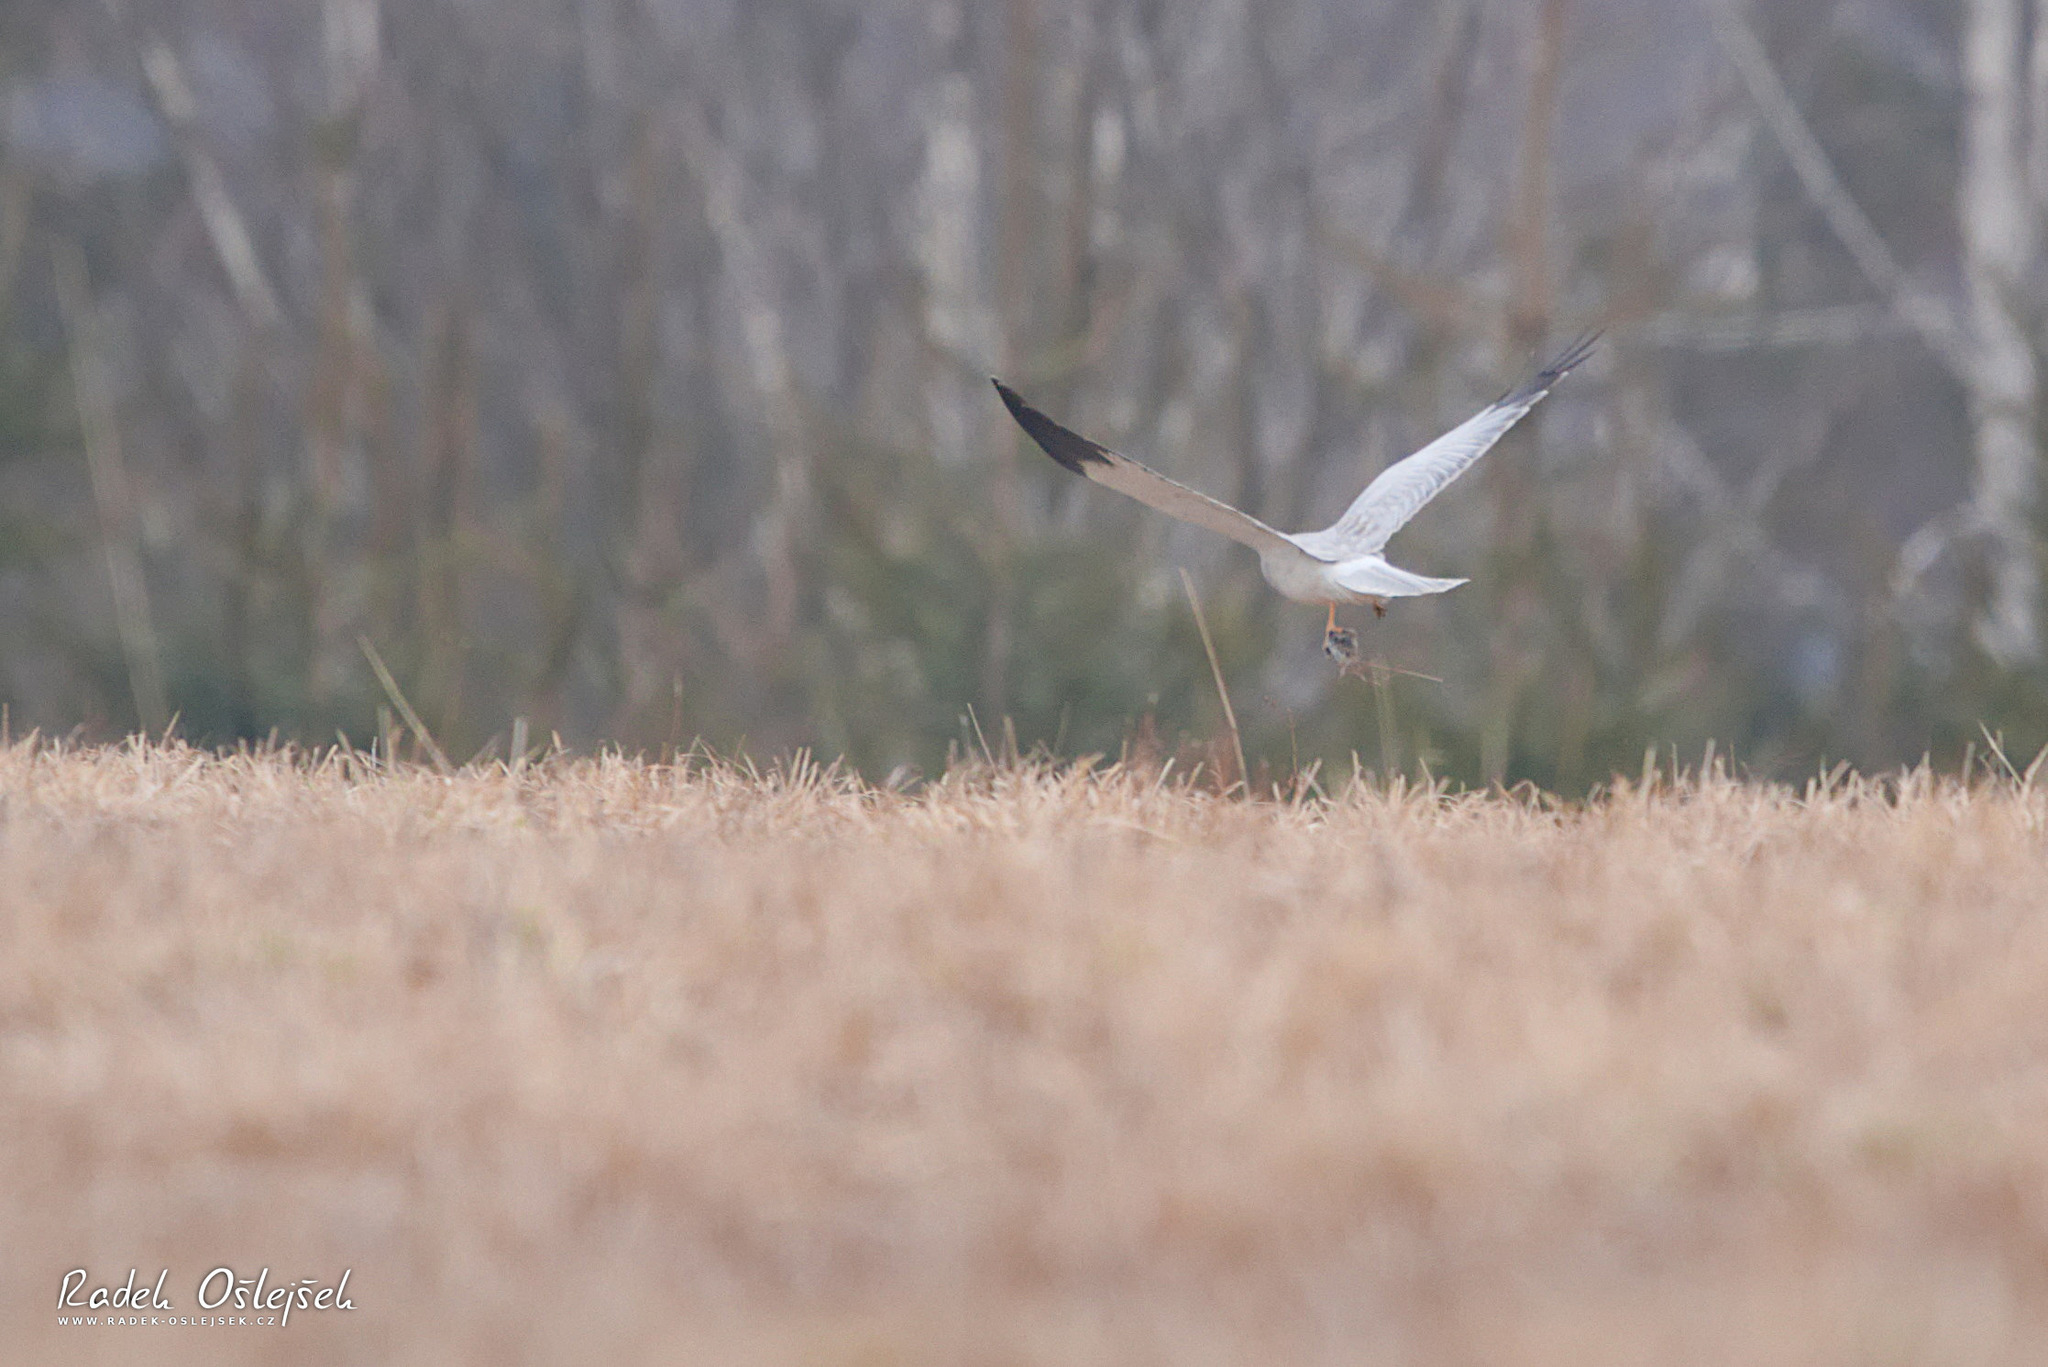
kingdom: Animalia
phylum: Chordata
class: Aves
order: Accipitriformes
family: Accipitridae
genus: Circus
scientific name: Circus cyaneus
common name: Hen harrier
